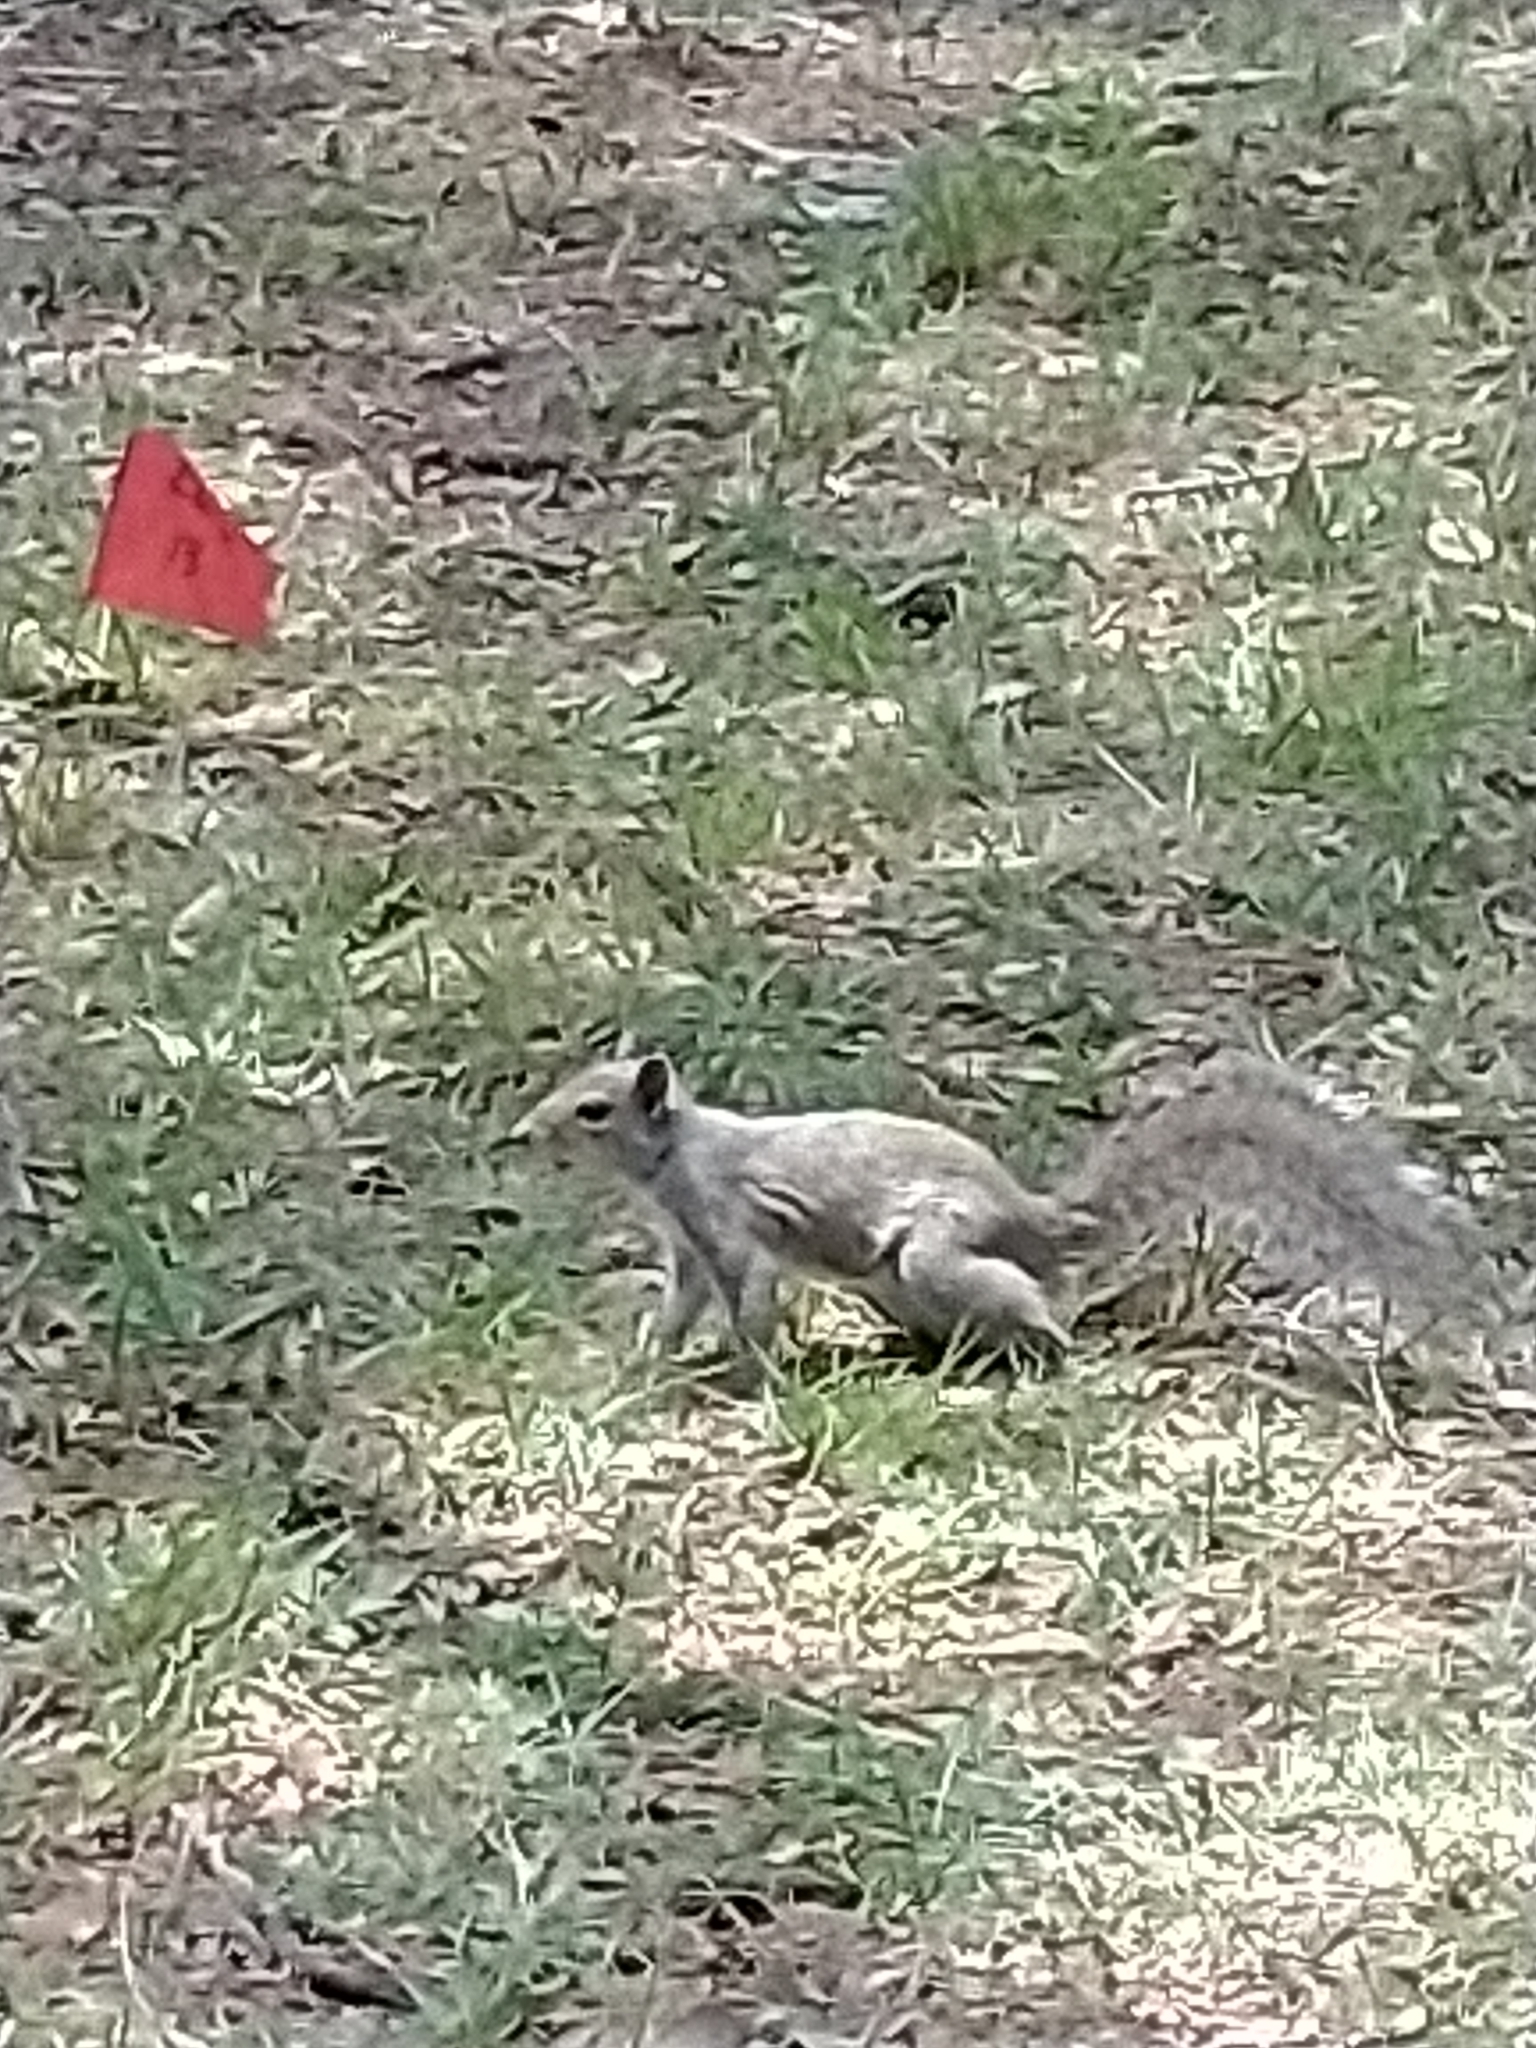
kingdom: Animalia
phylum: Chordata
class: Mammalia
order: Rodentia
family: Sciuridae
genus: Sciurus
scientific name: Sciurus carolinensis
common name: Eastern gray squirrel
